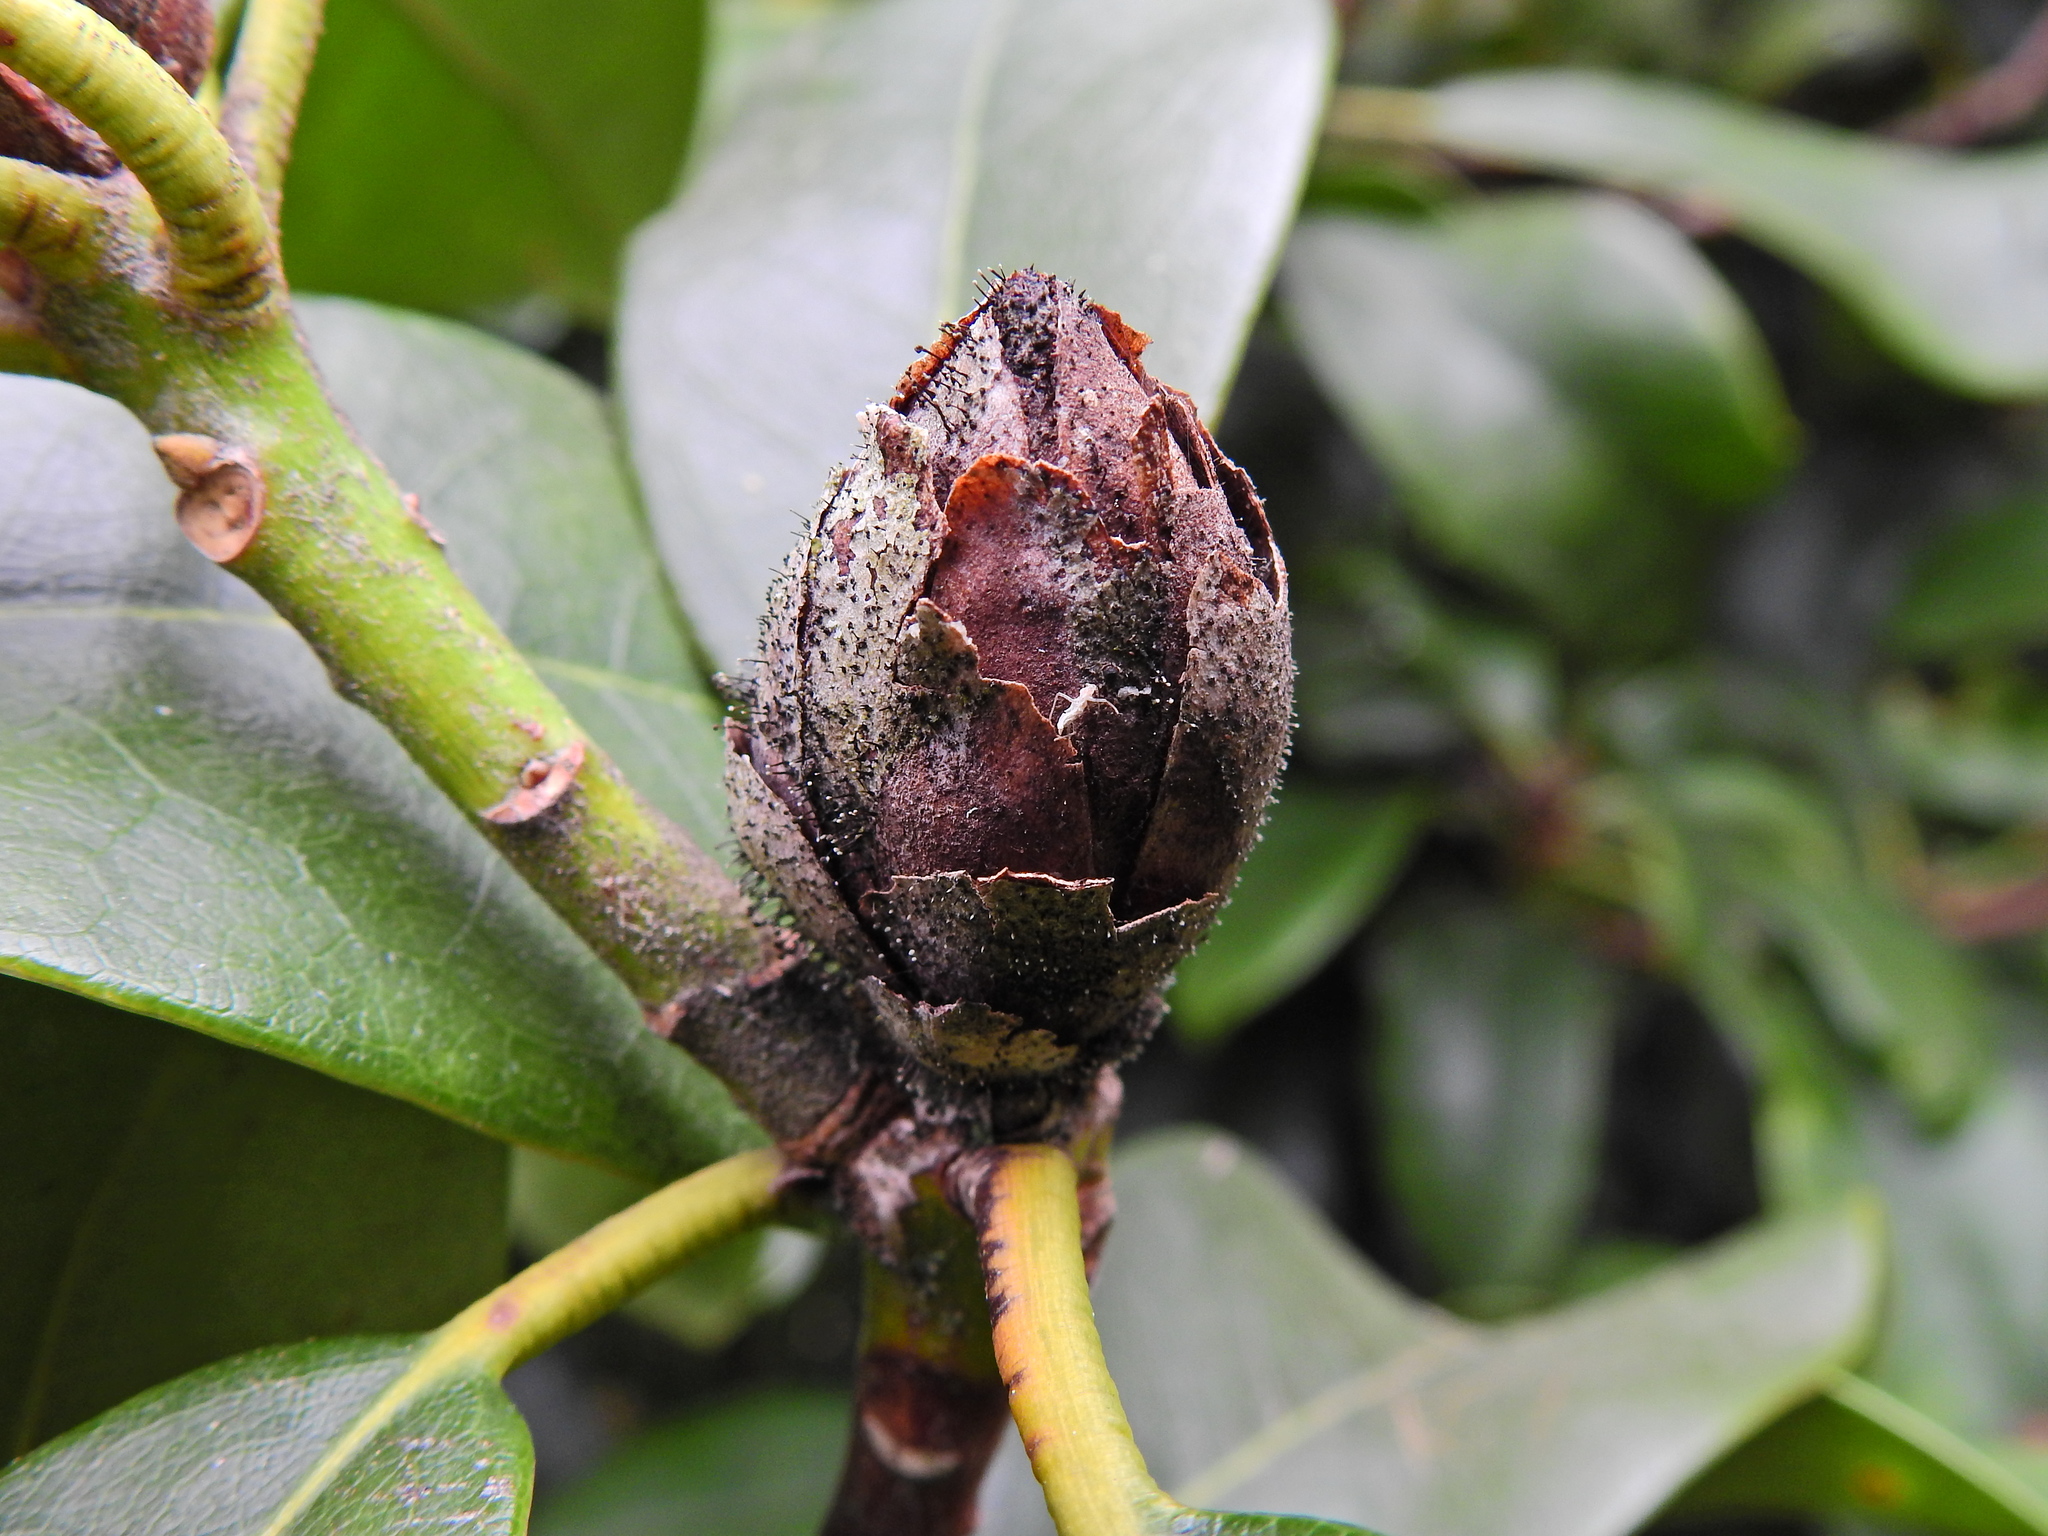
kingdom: Fungi
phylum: Ascomycota
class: Dothideomycetes
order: Pleosporales
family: Melanommataceae
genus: Seifertia
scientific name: Seifertia azaleae
